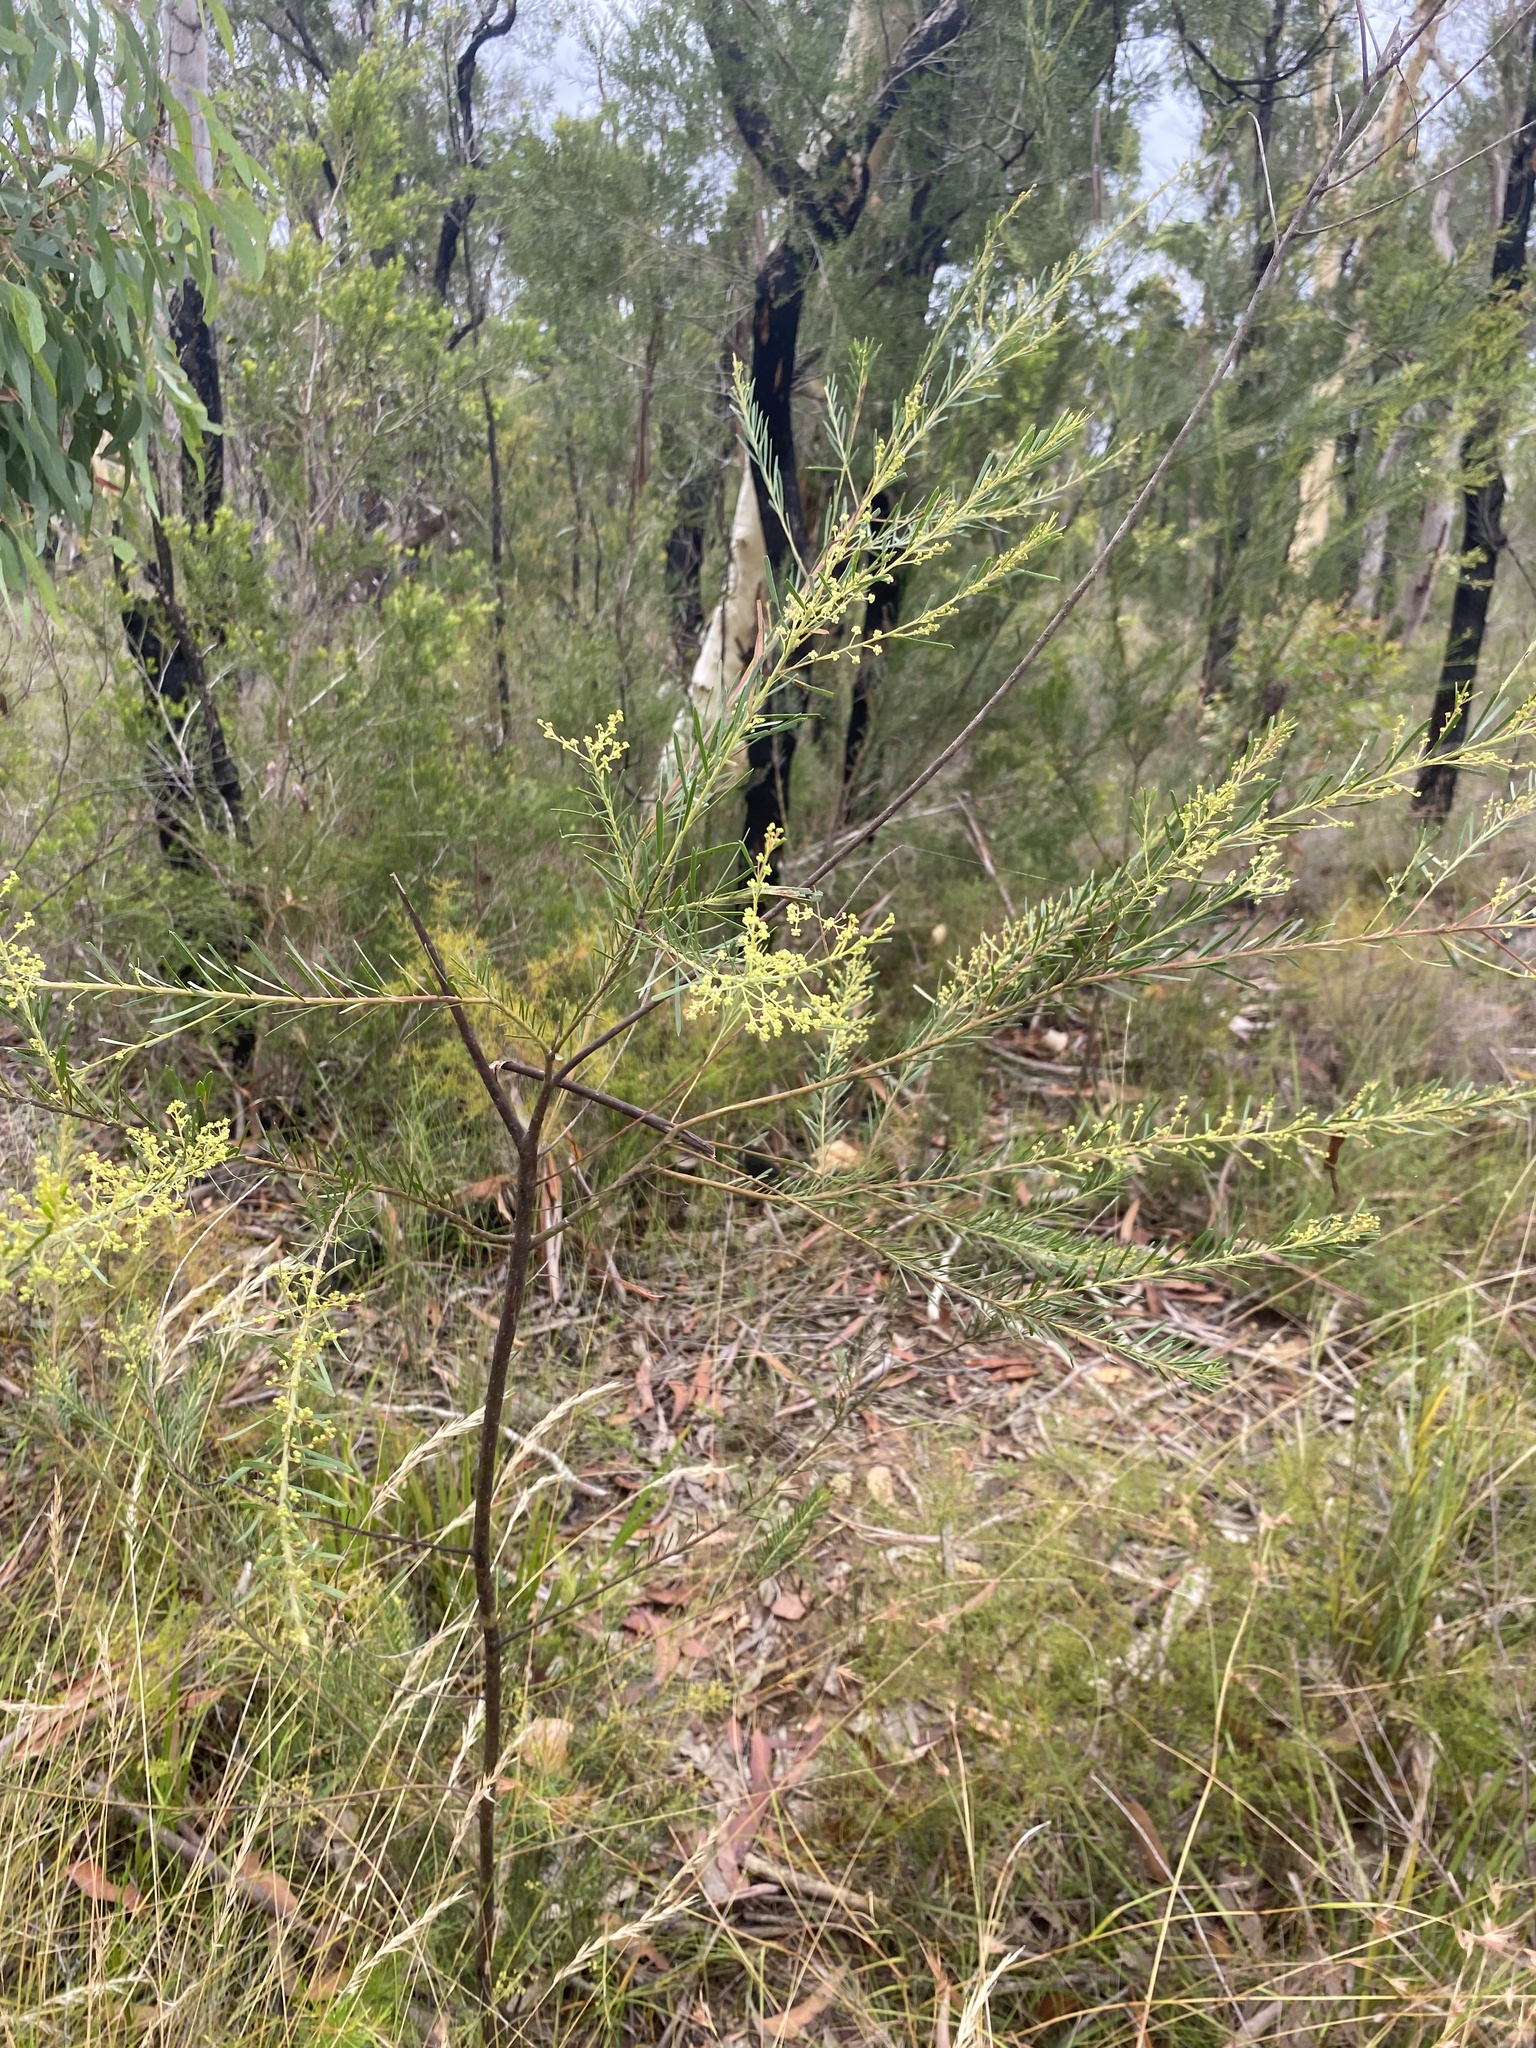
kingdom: Plantae
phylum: Tracheophyta
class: Magnoliopsida
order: Fabales
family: Fabaceae
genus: Acacia
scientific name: Acacia linifolia
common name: White wattle
